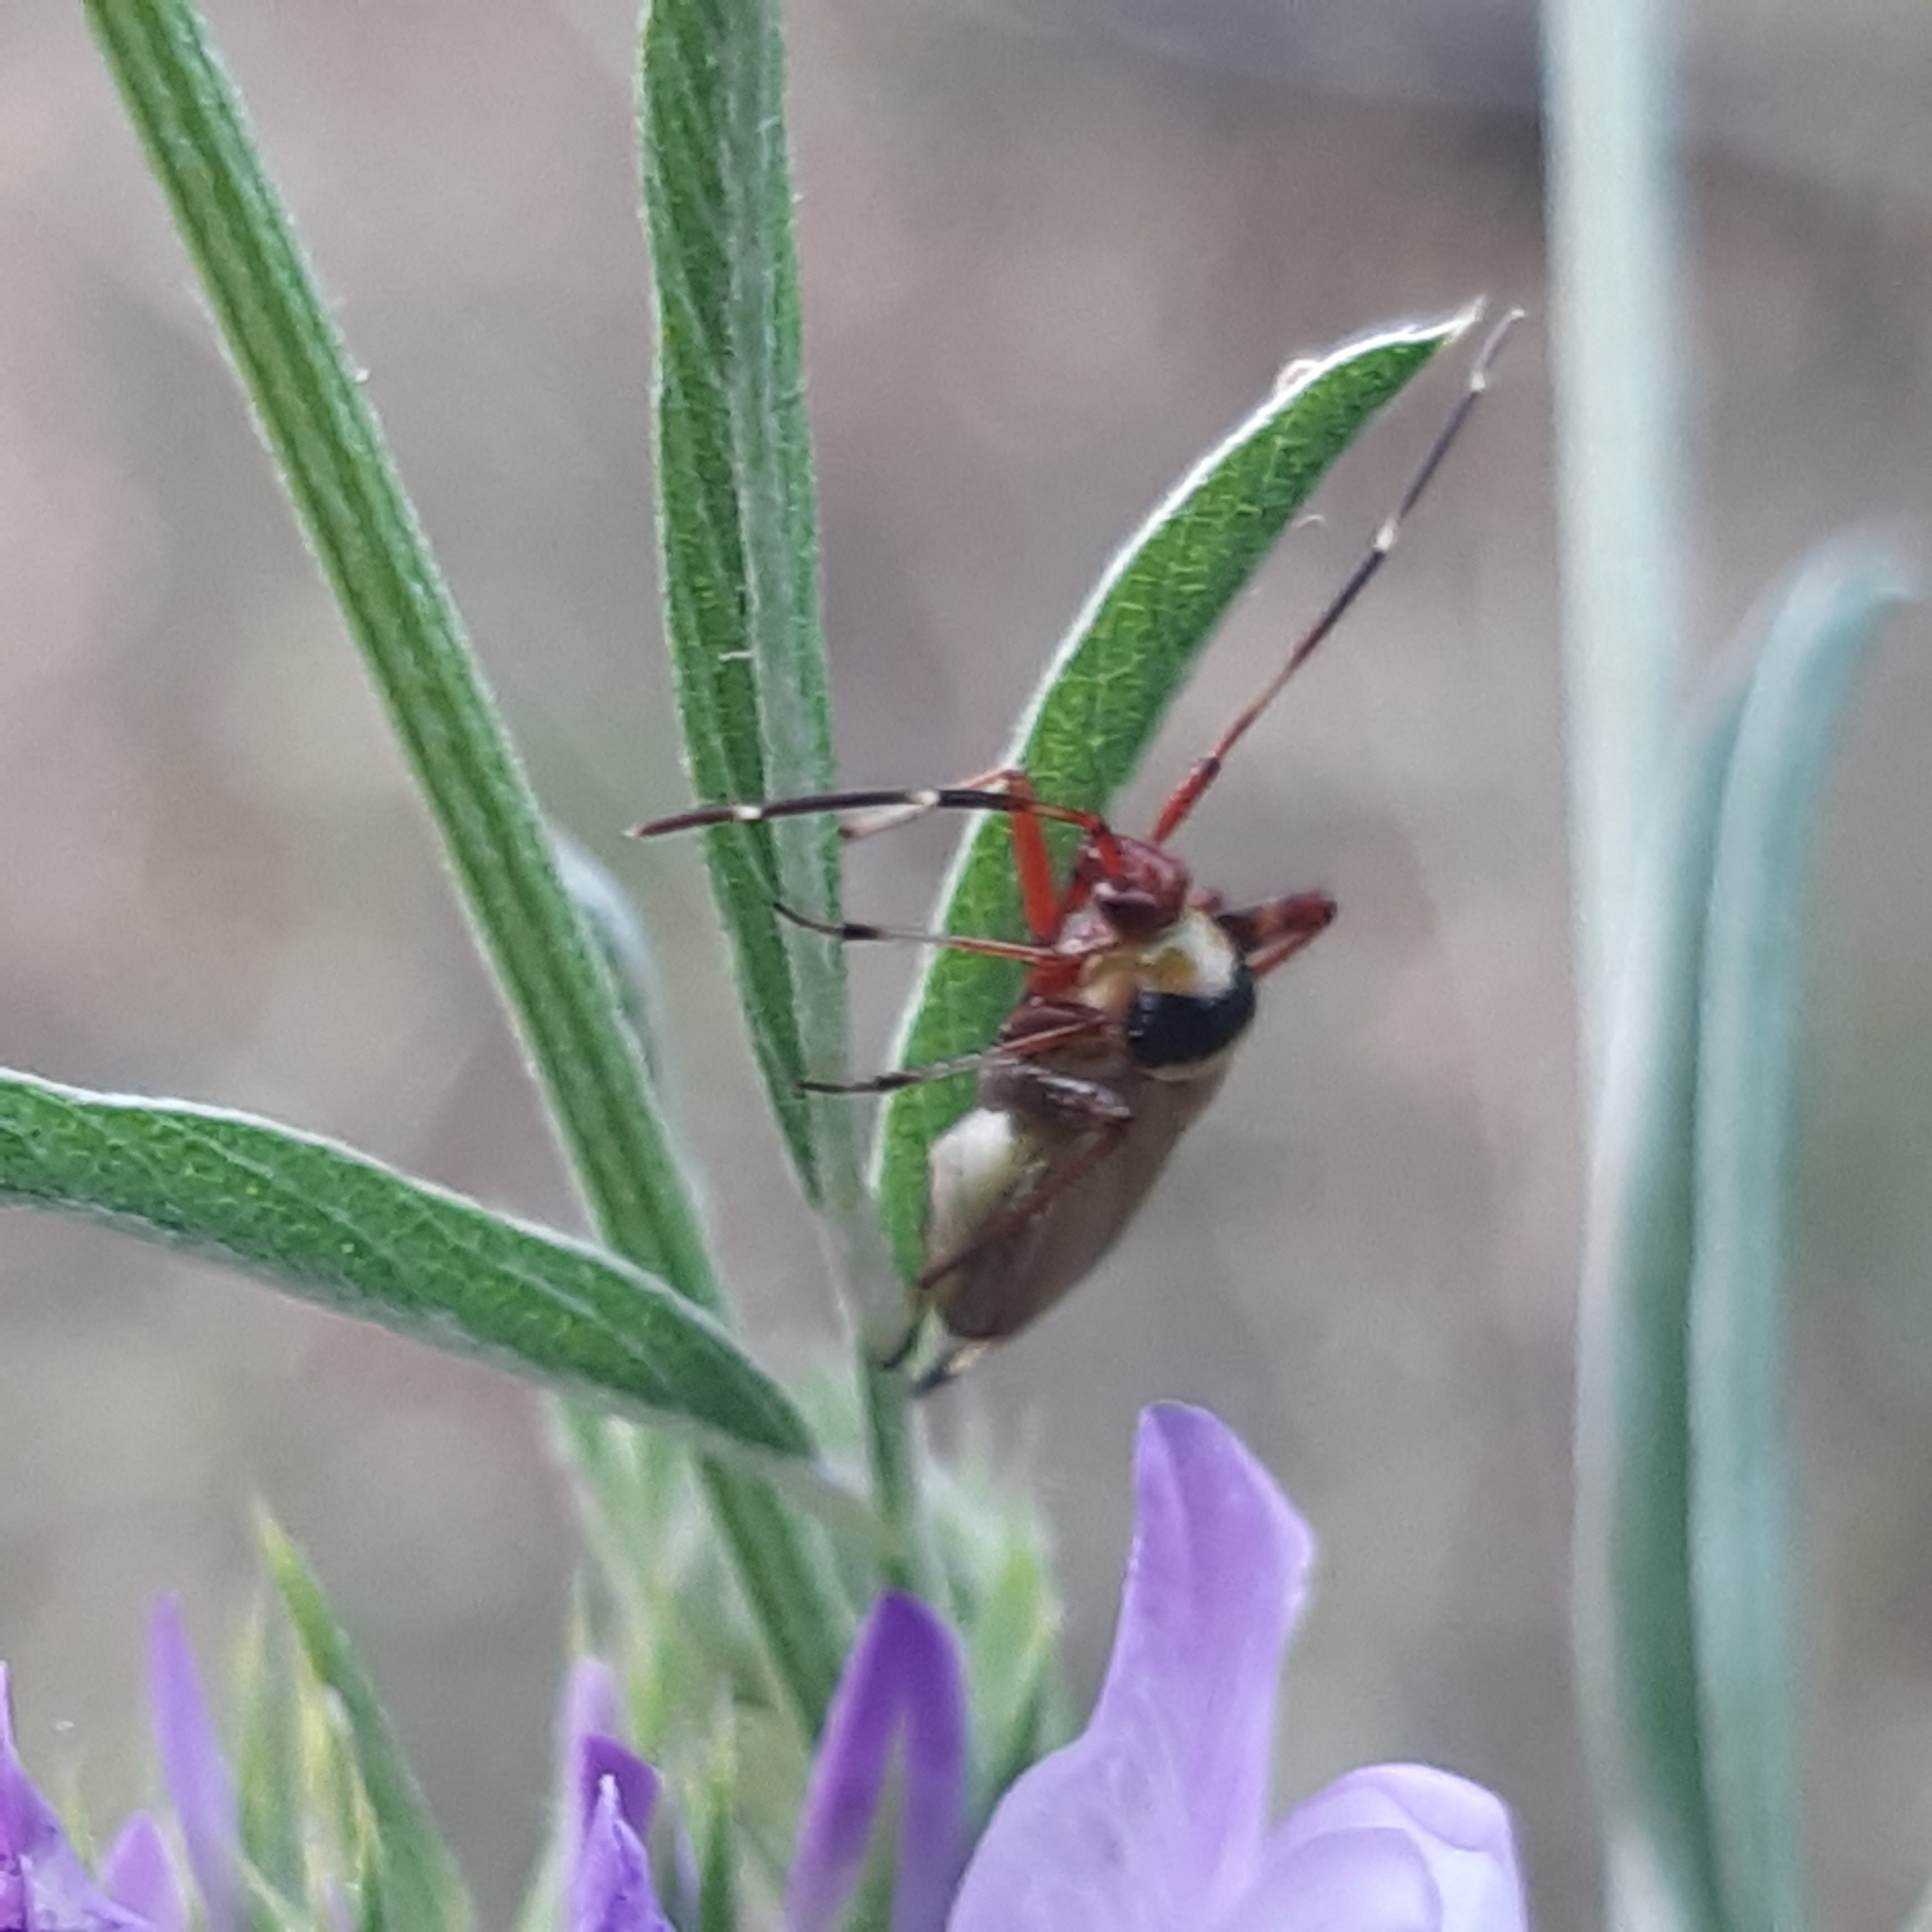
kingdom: Animalia
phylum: Arthropoda
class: Insecta
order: Hemiptera
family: Miridae
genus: Adelphocoris
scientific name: Adelphocoris vandalicus
